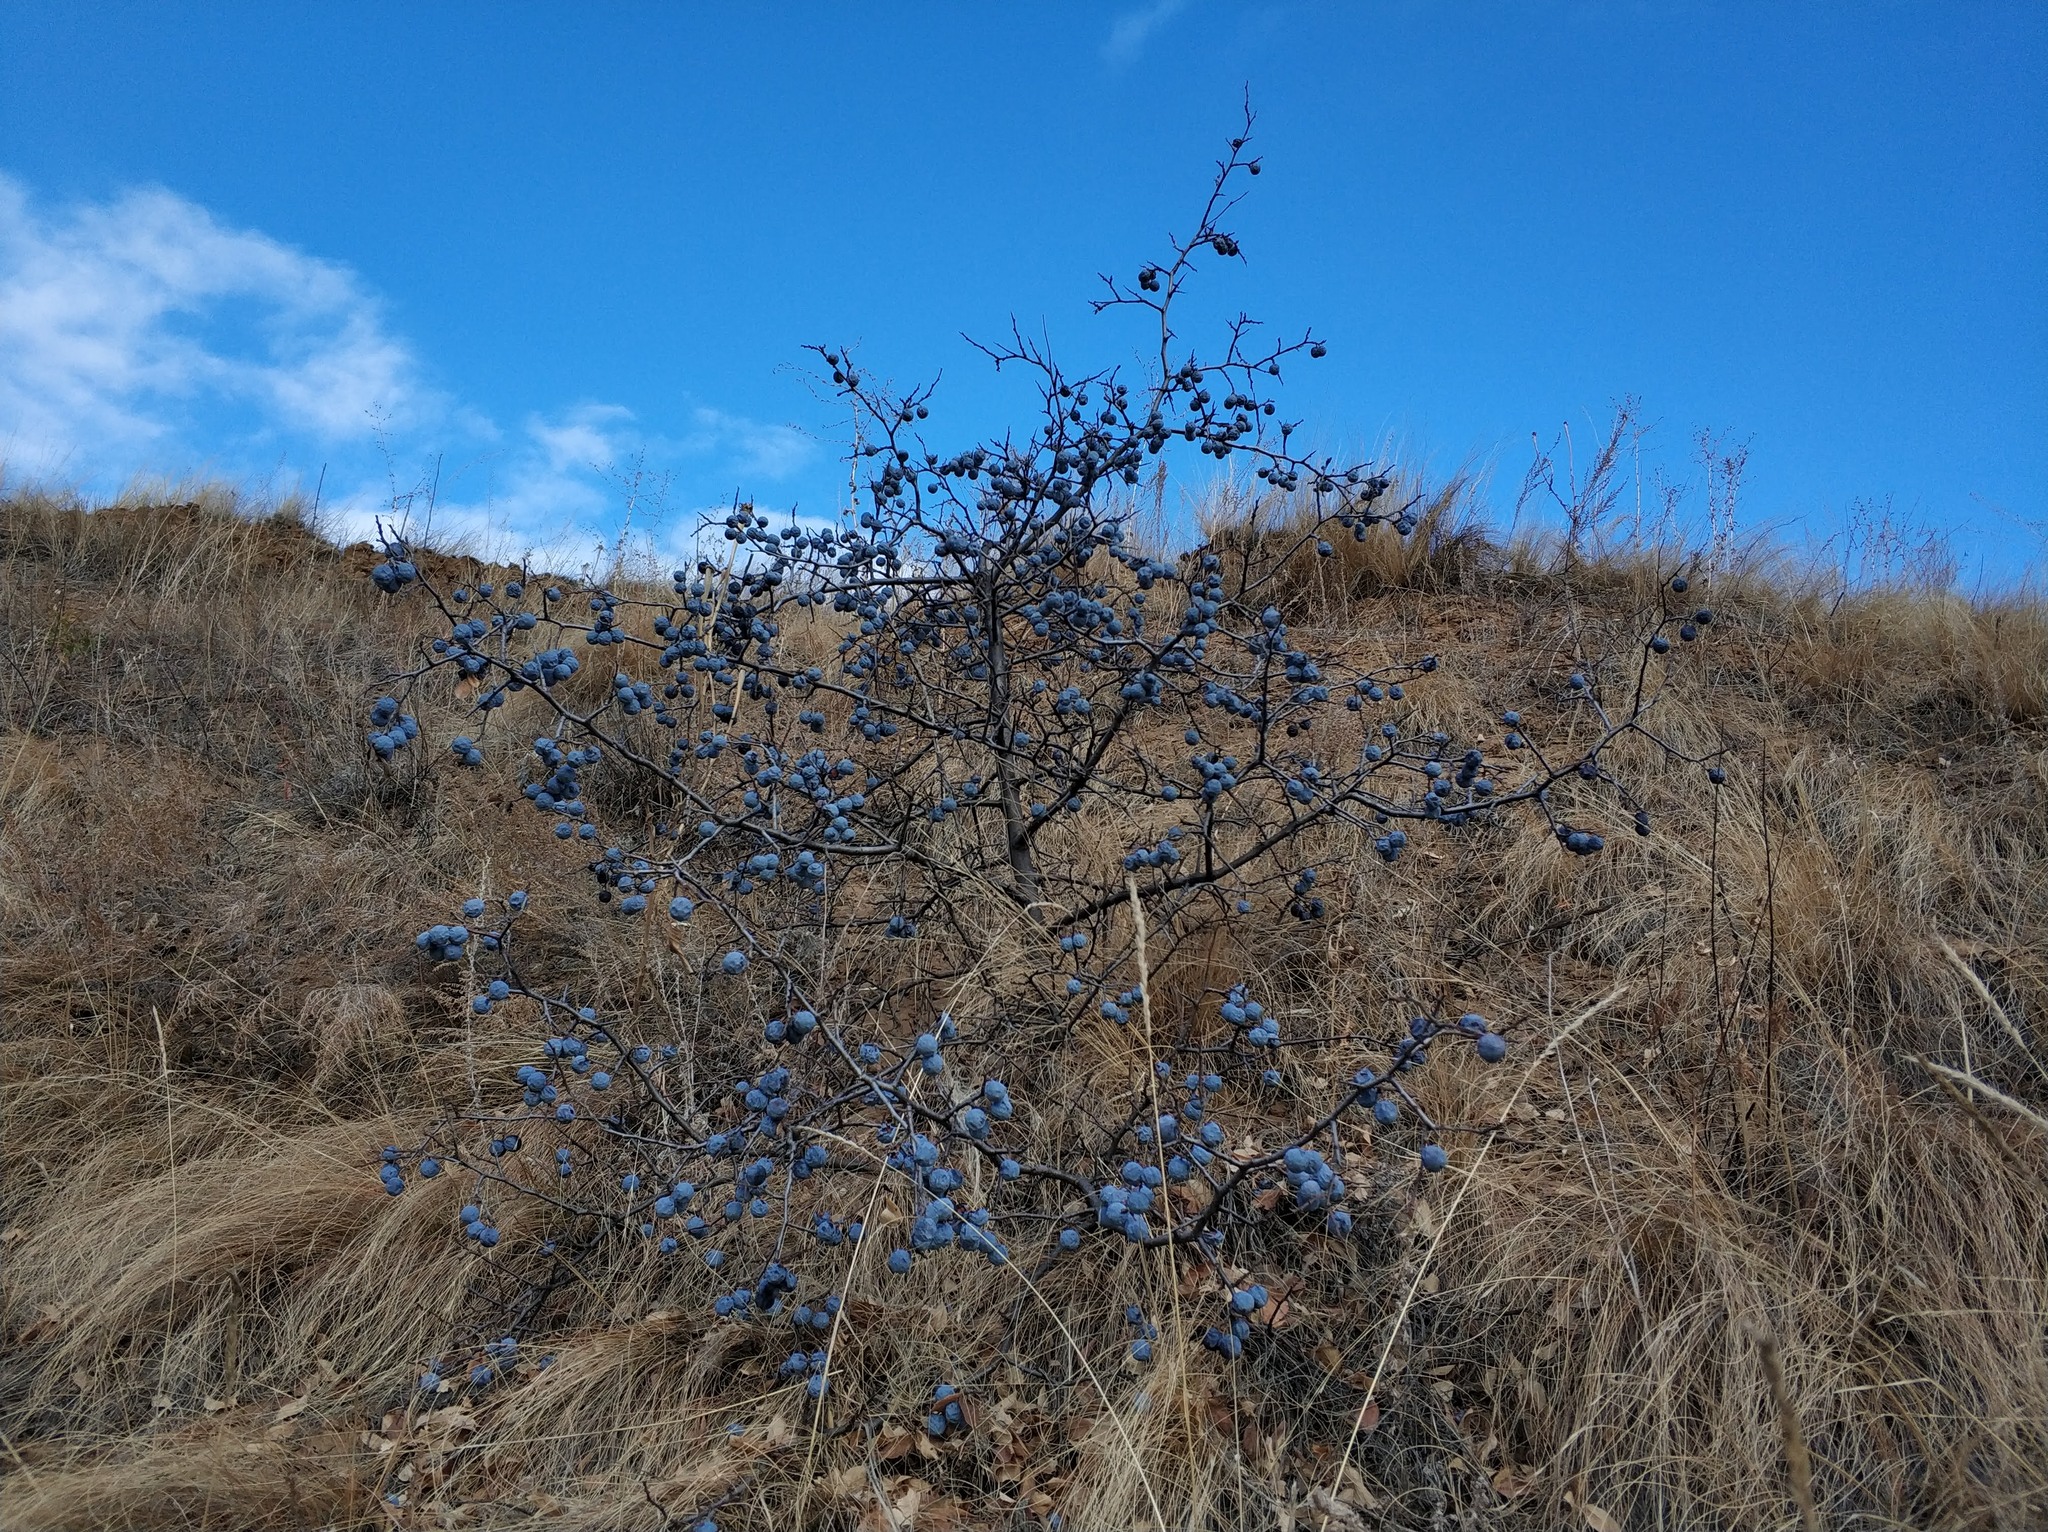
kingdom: Plantae
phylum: Tracheophyta
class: Magnoliopsida
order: Rosales
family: Rosaceae
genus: Prunus
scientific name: Prunus spinosa
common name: Blackthorn
